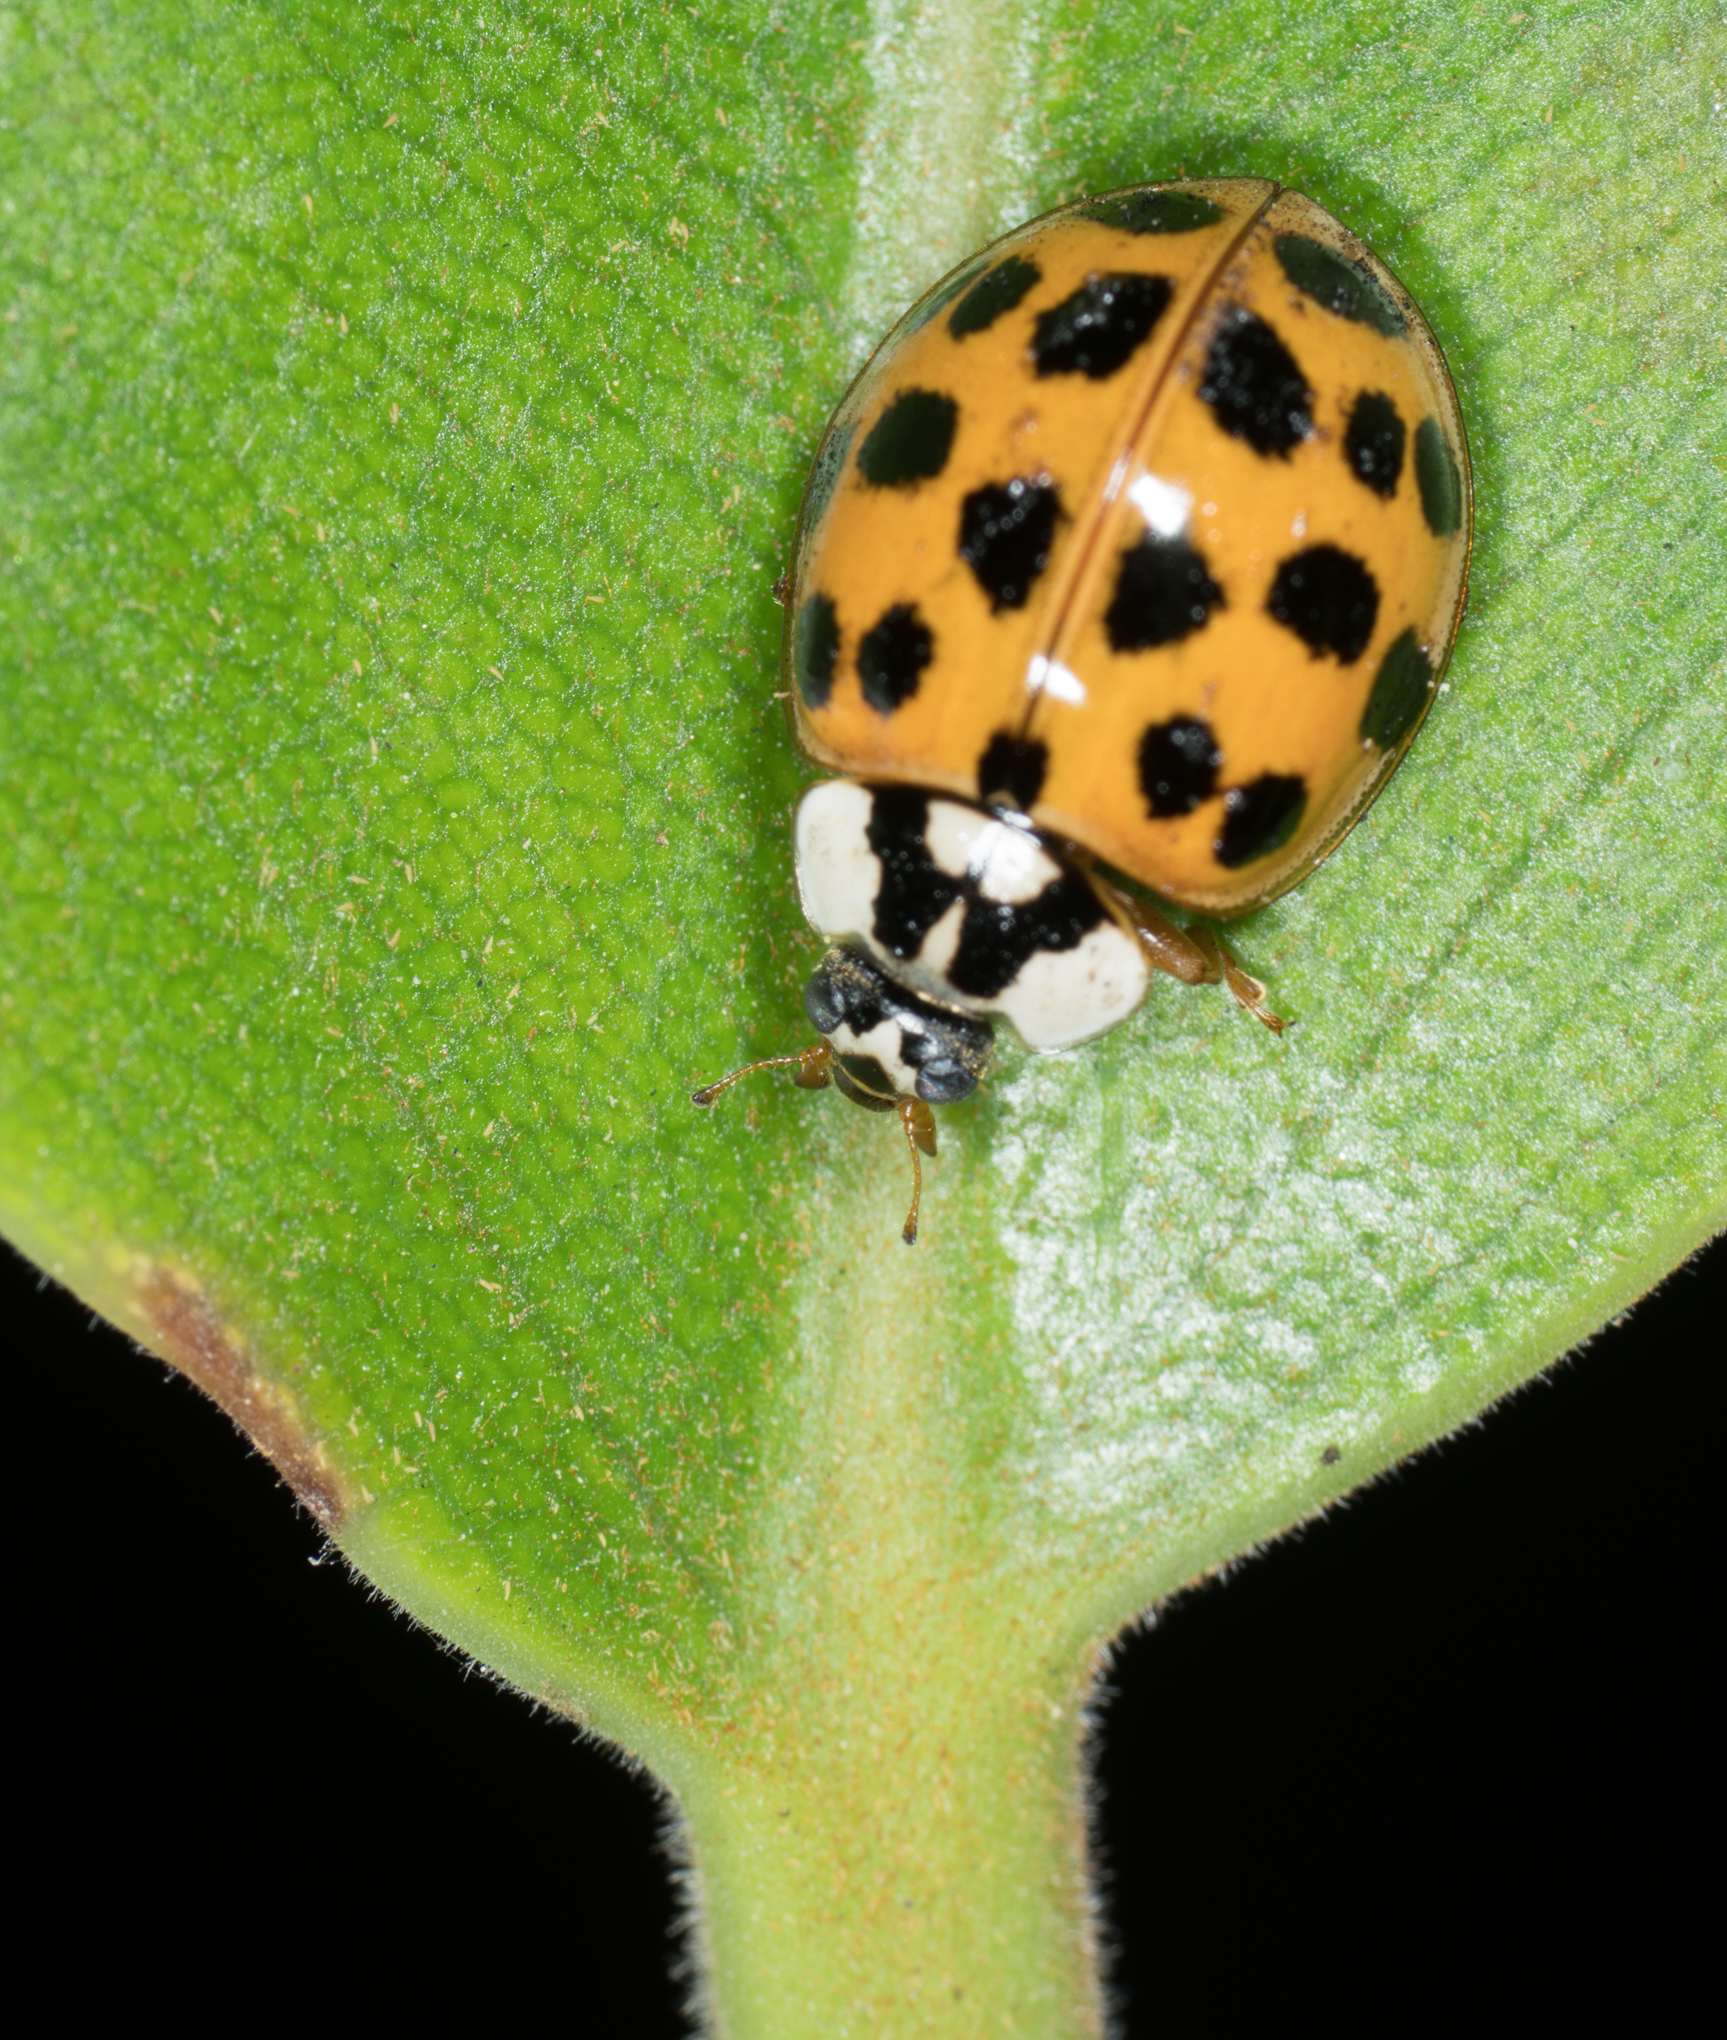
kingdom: Animalia
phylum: Arthropoda
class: Insecta
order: Coleoptera
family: Coccinellidae
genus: Harmonia
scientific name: Harmonia axyridis
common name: Harlequin ladybird
